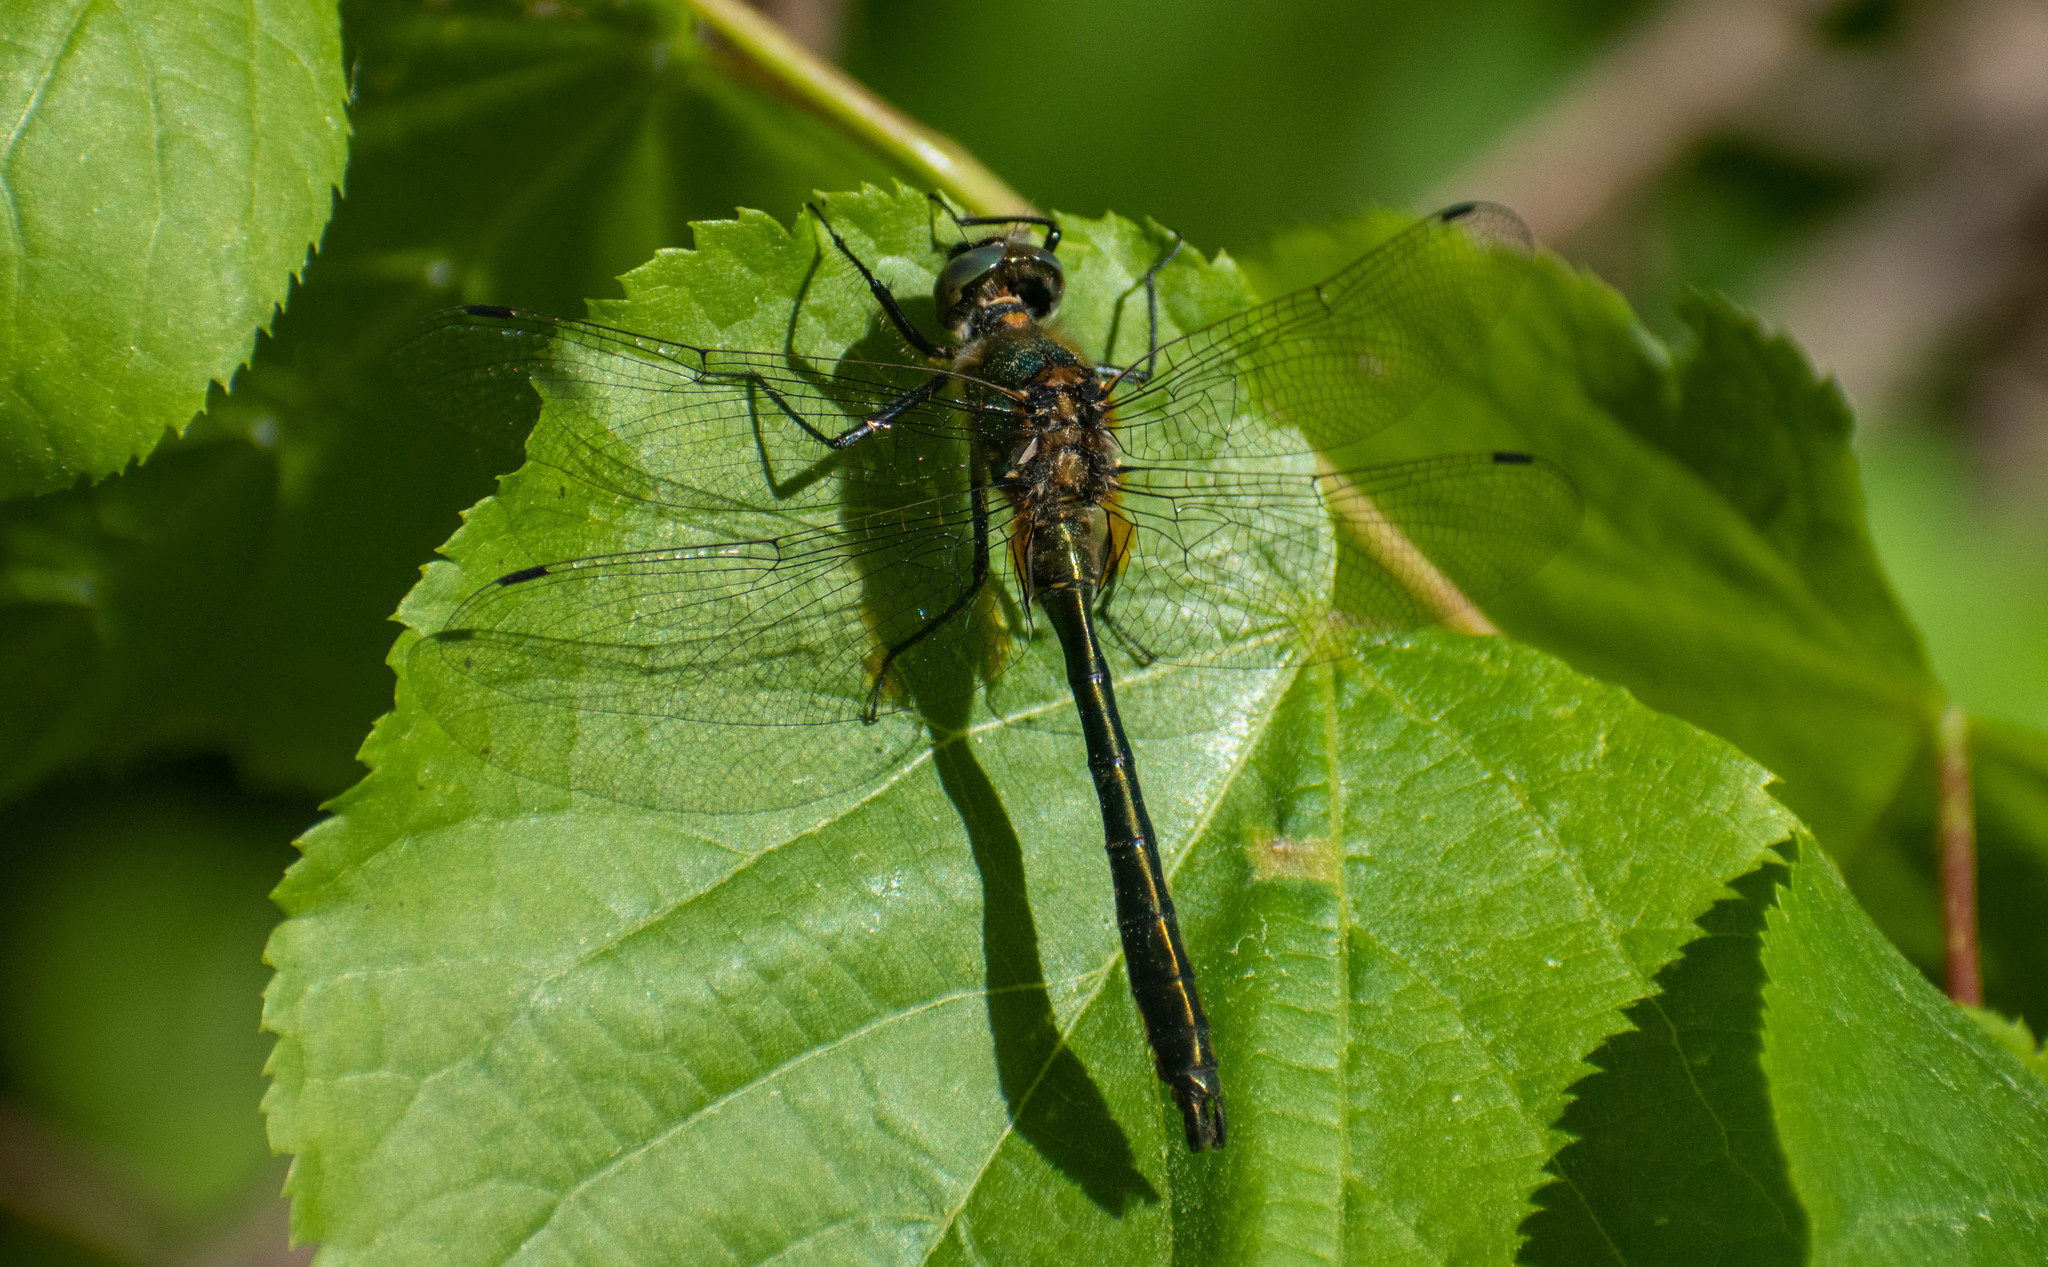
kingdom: Animalia
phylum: Arthropoda
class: Insecta
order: Odonata
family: Corduliidae
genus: Cordulia
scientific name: Cordulia aenea
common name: Downy emerald
